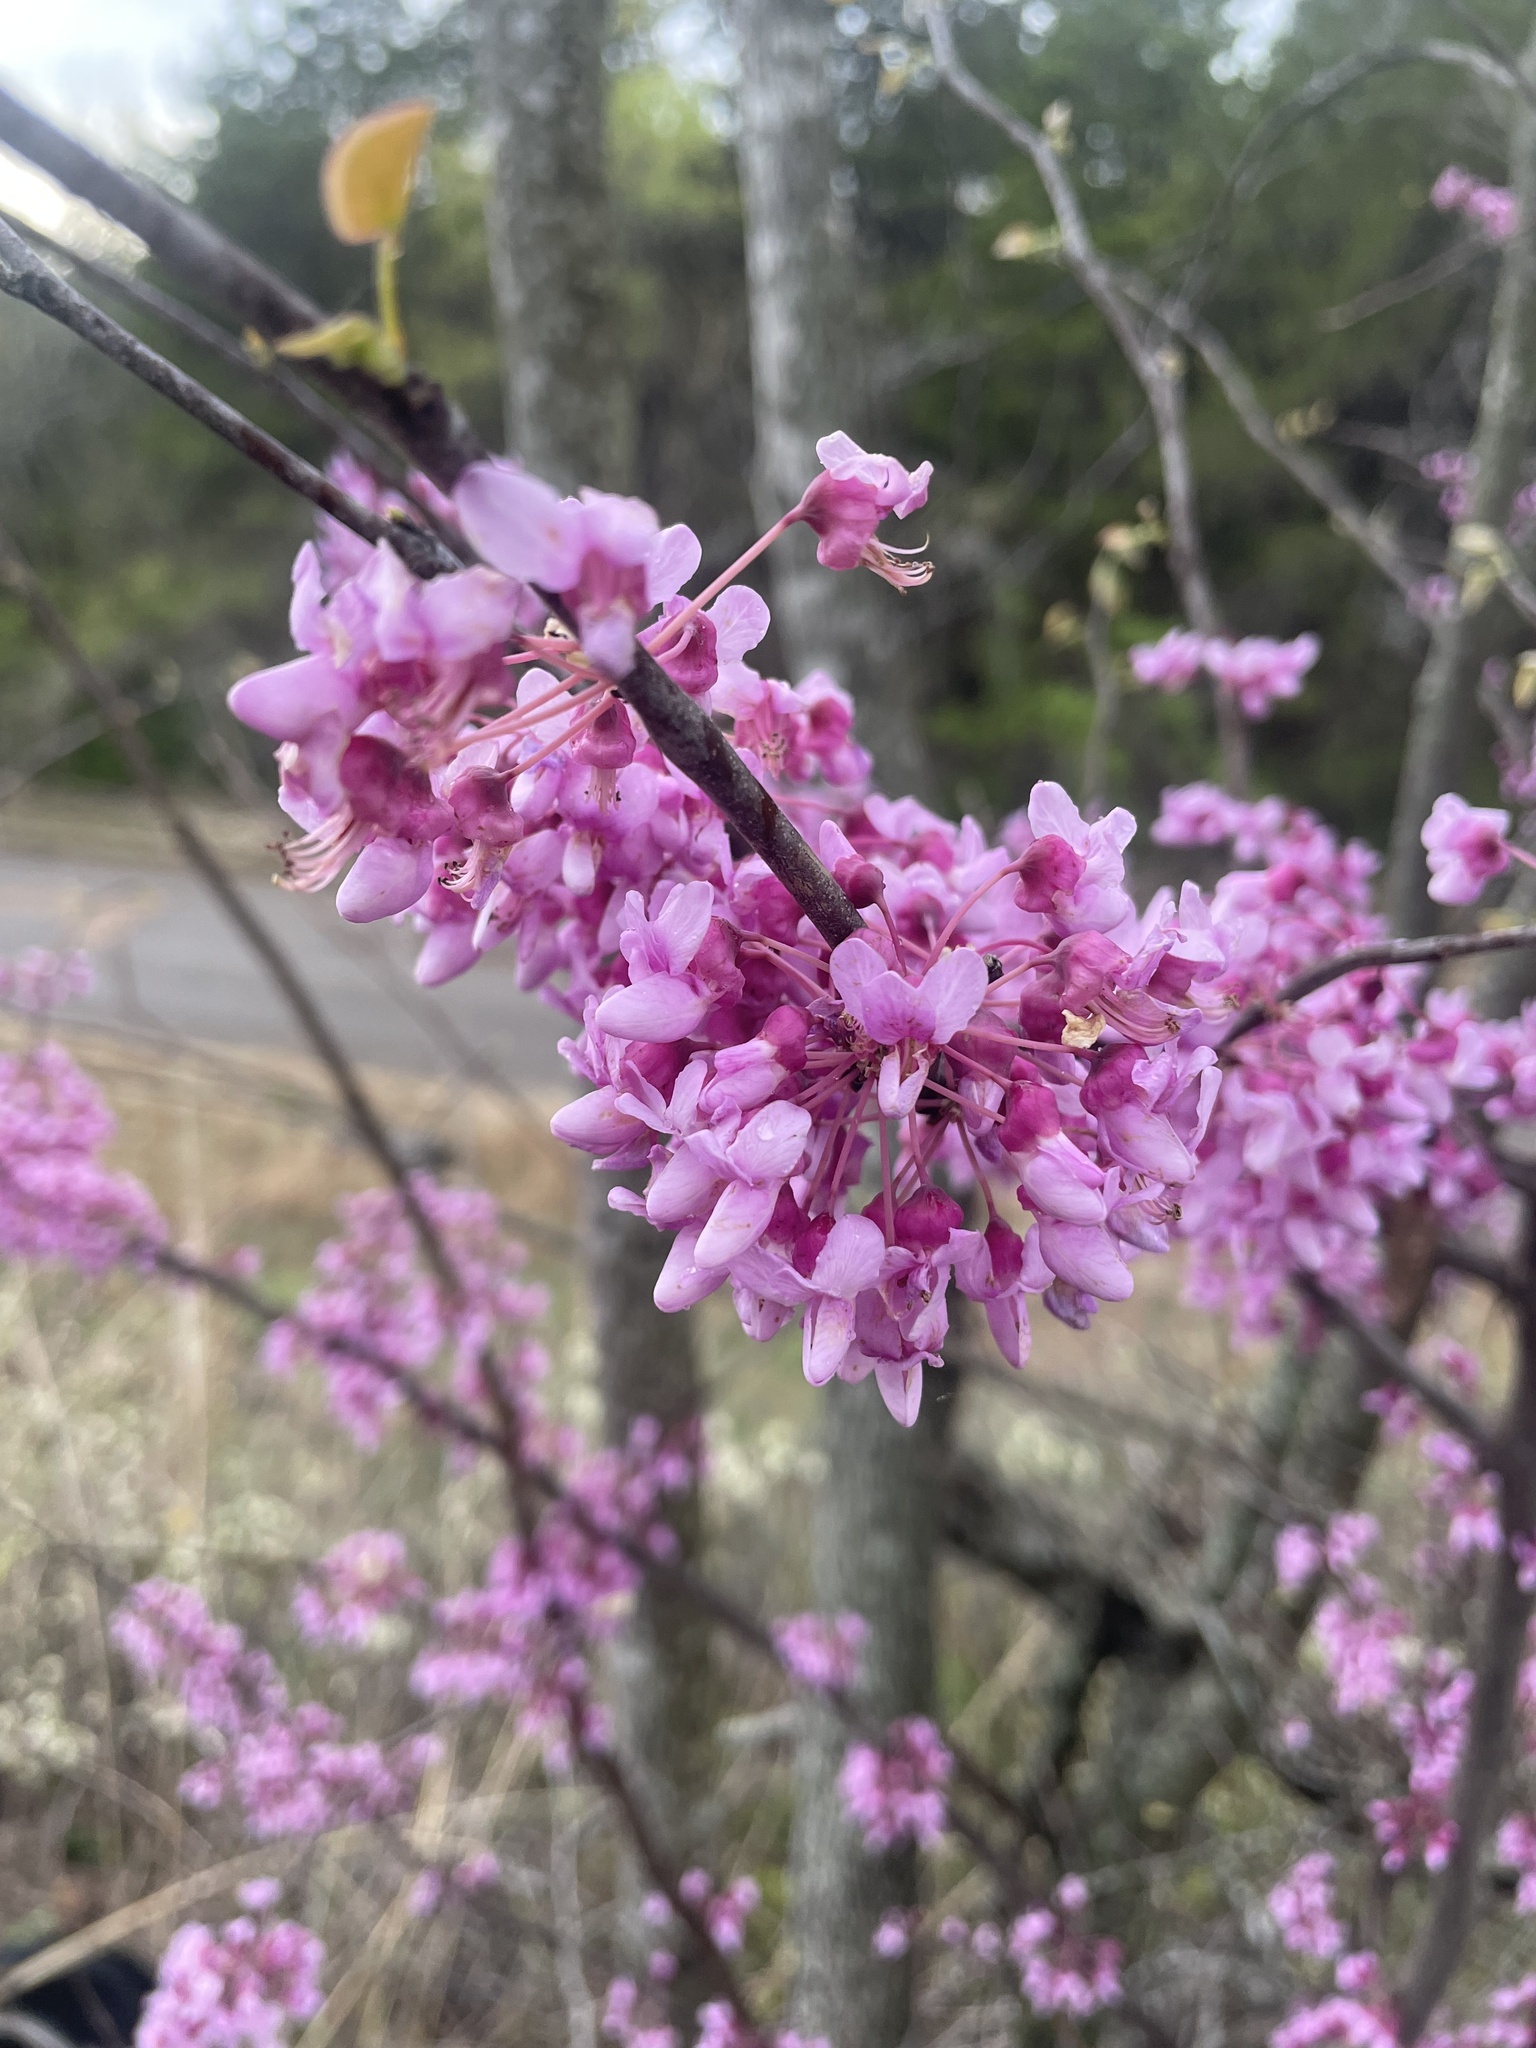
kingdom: Plantae
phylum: Tracheophyta
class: Magnoliopsida
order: Fabales
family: Fabaceae
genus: Cercis
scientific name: Cercis canadensis
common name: Eastern redbud
